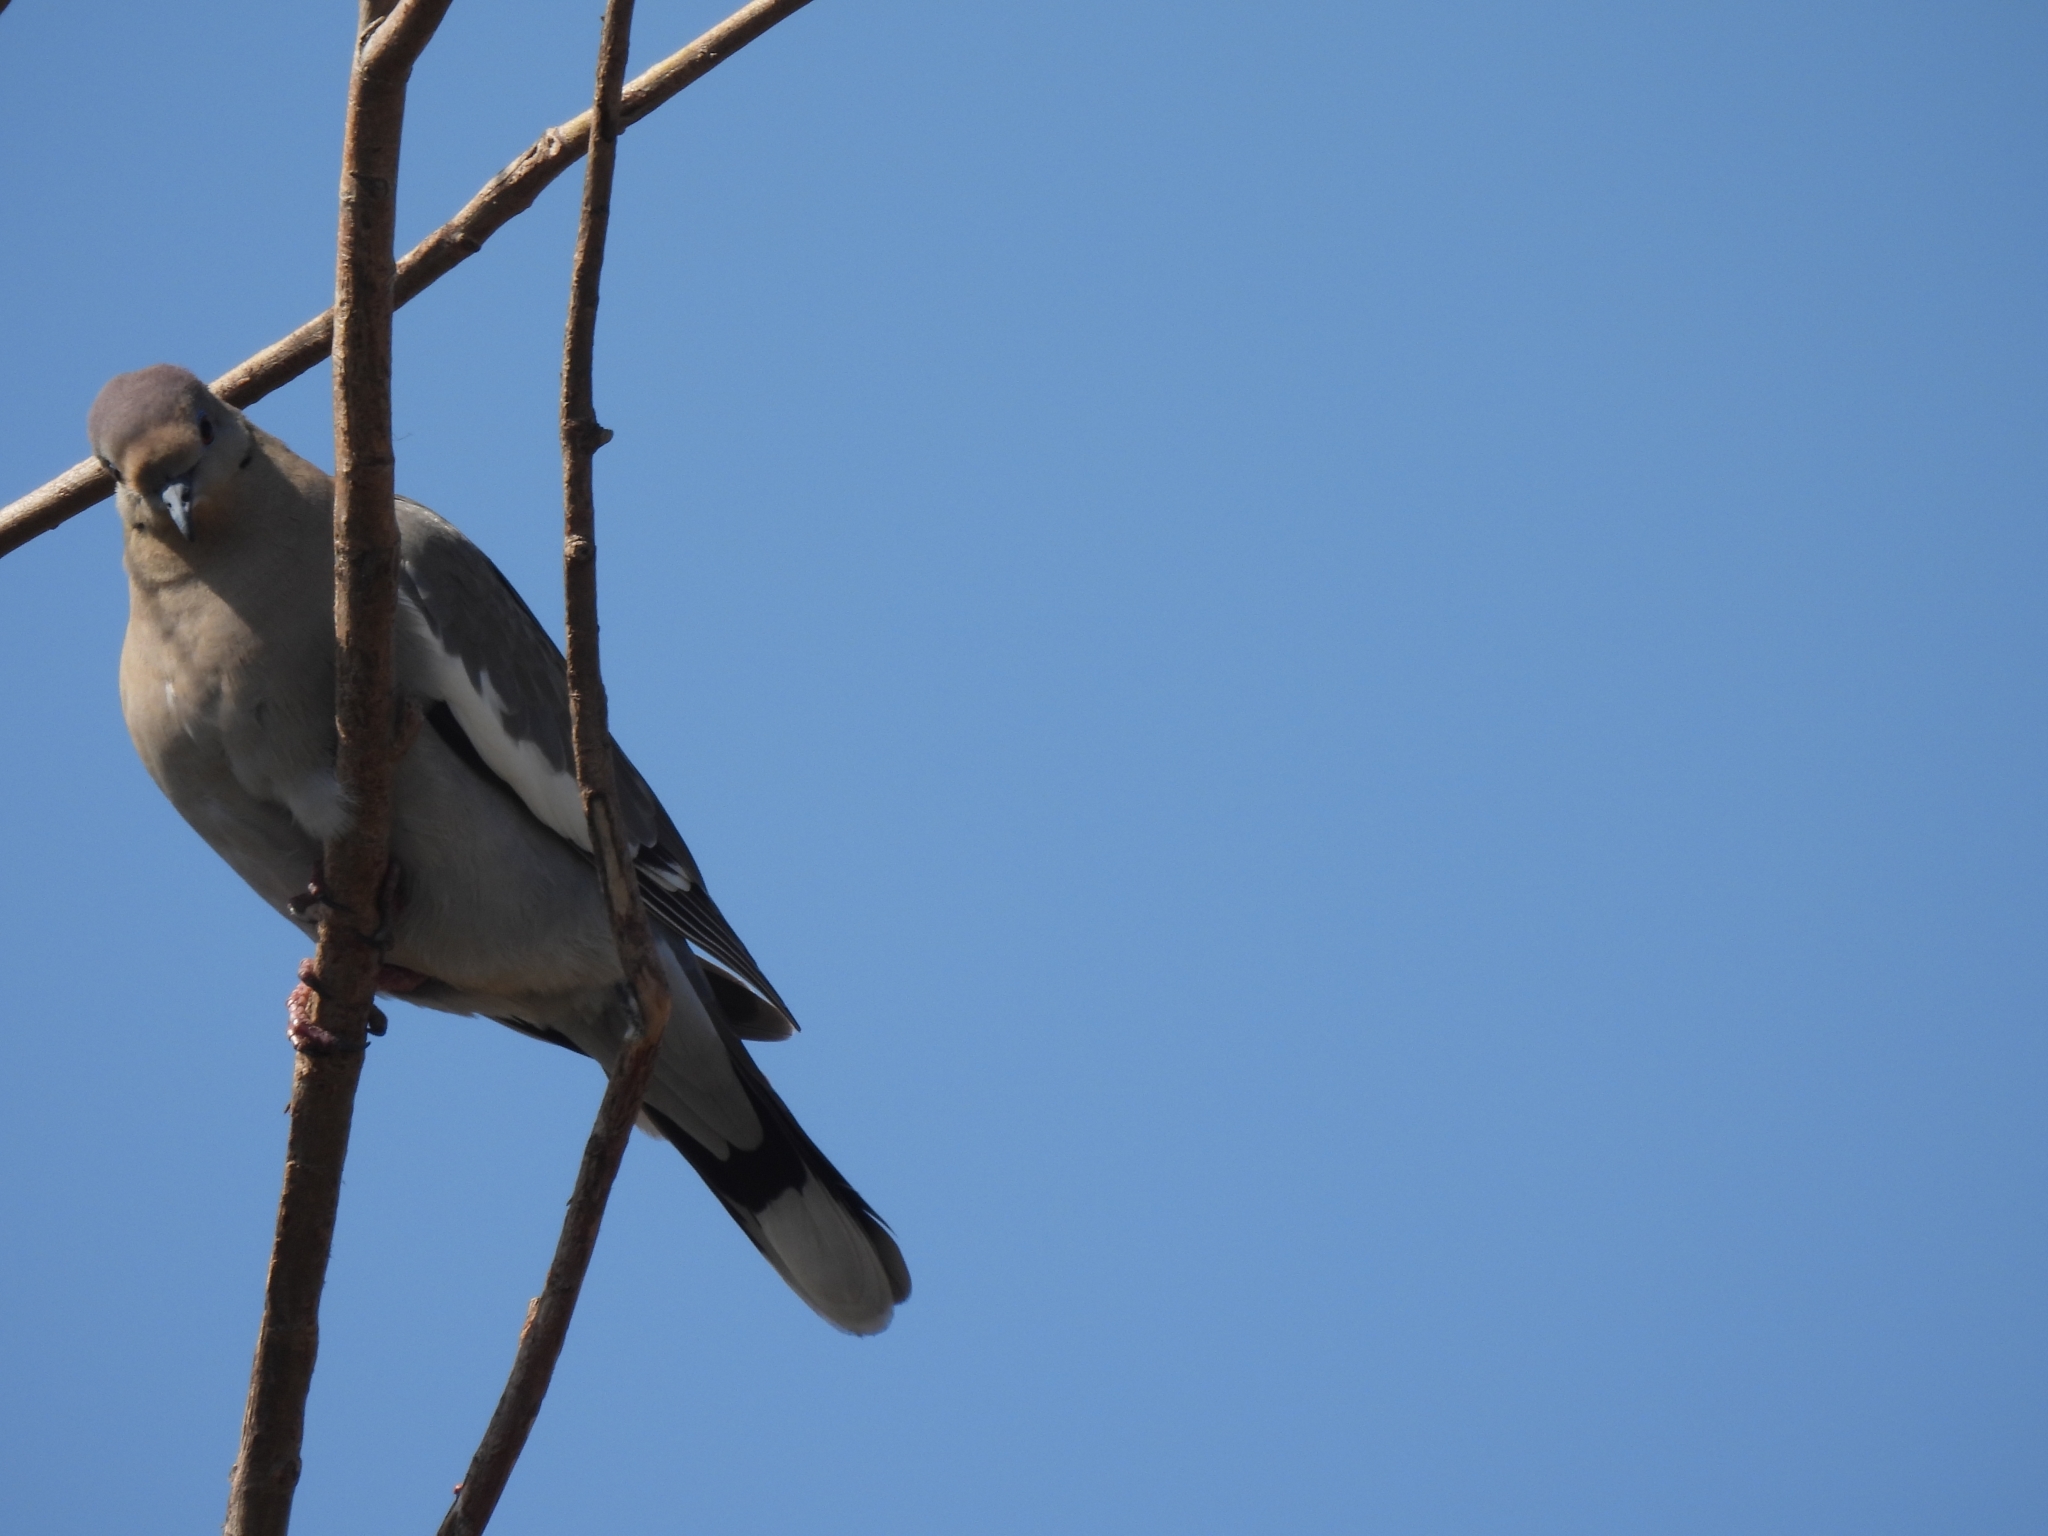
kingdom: Animalia
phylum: Chordata
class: Aves
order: Columbiformes
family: Columbidae
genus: Zenaida
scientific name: Zenaida asiatica
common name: White-winged dove
